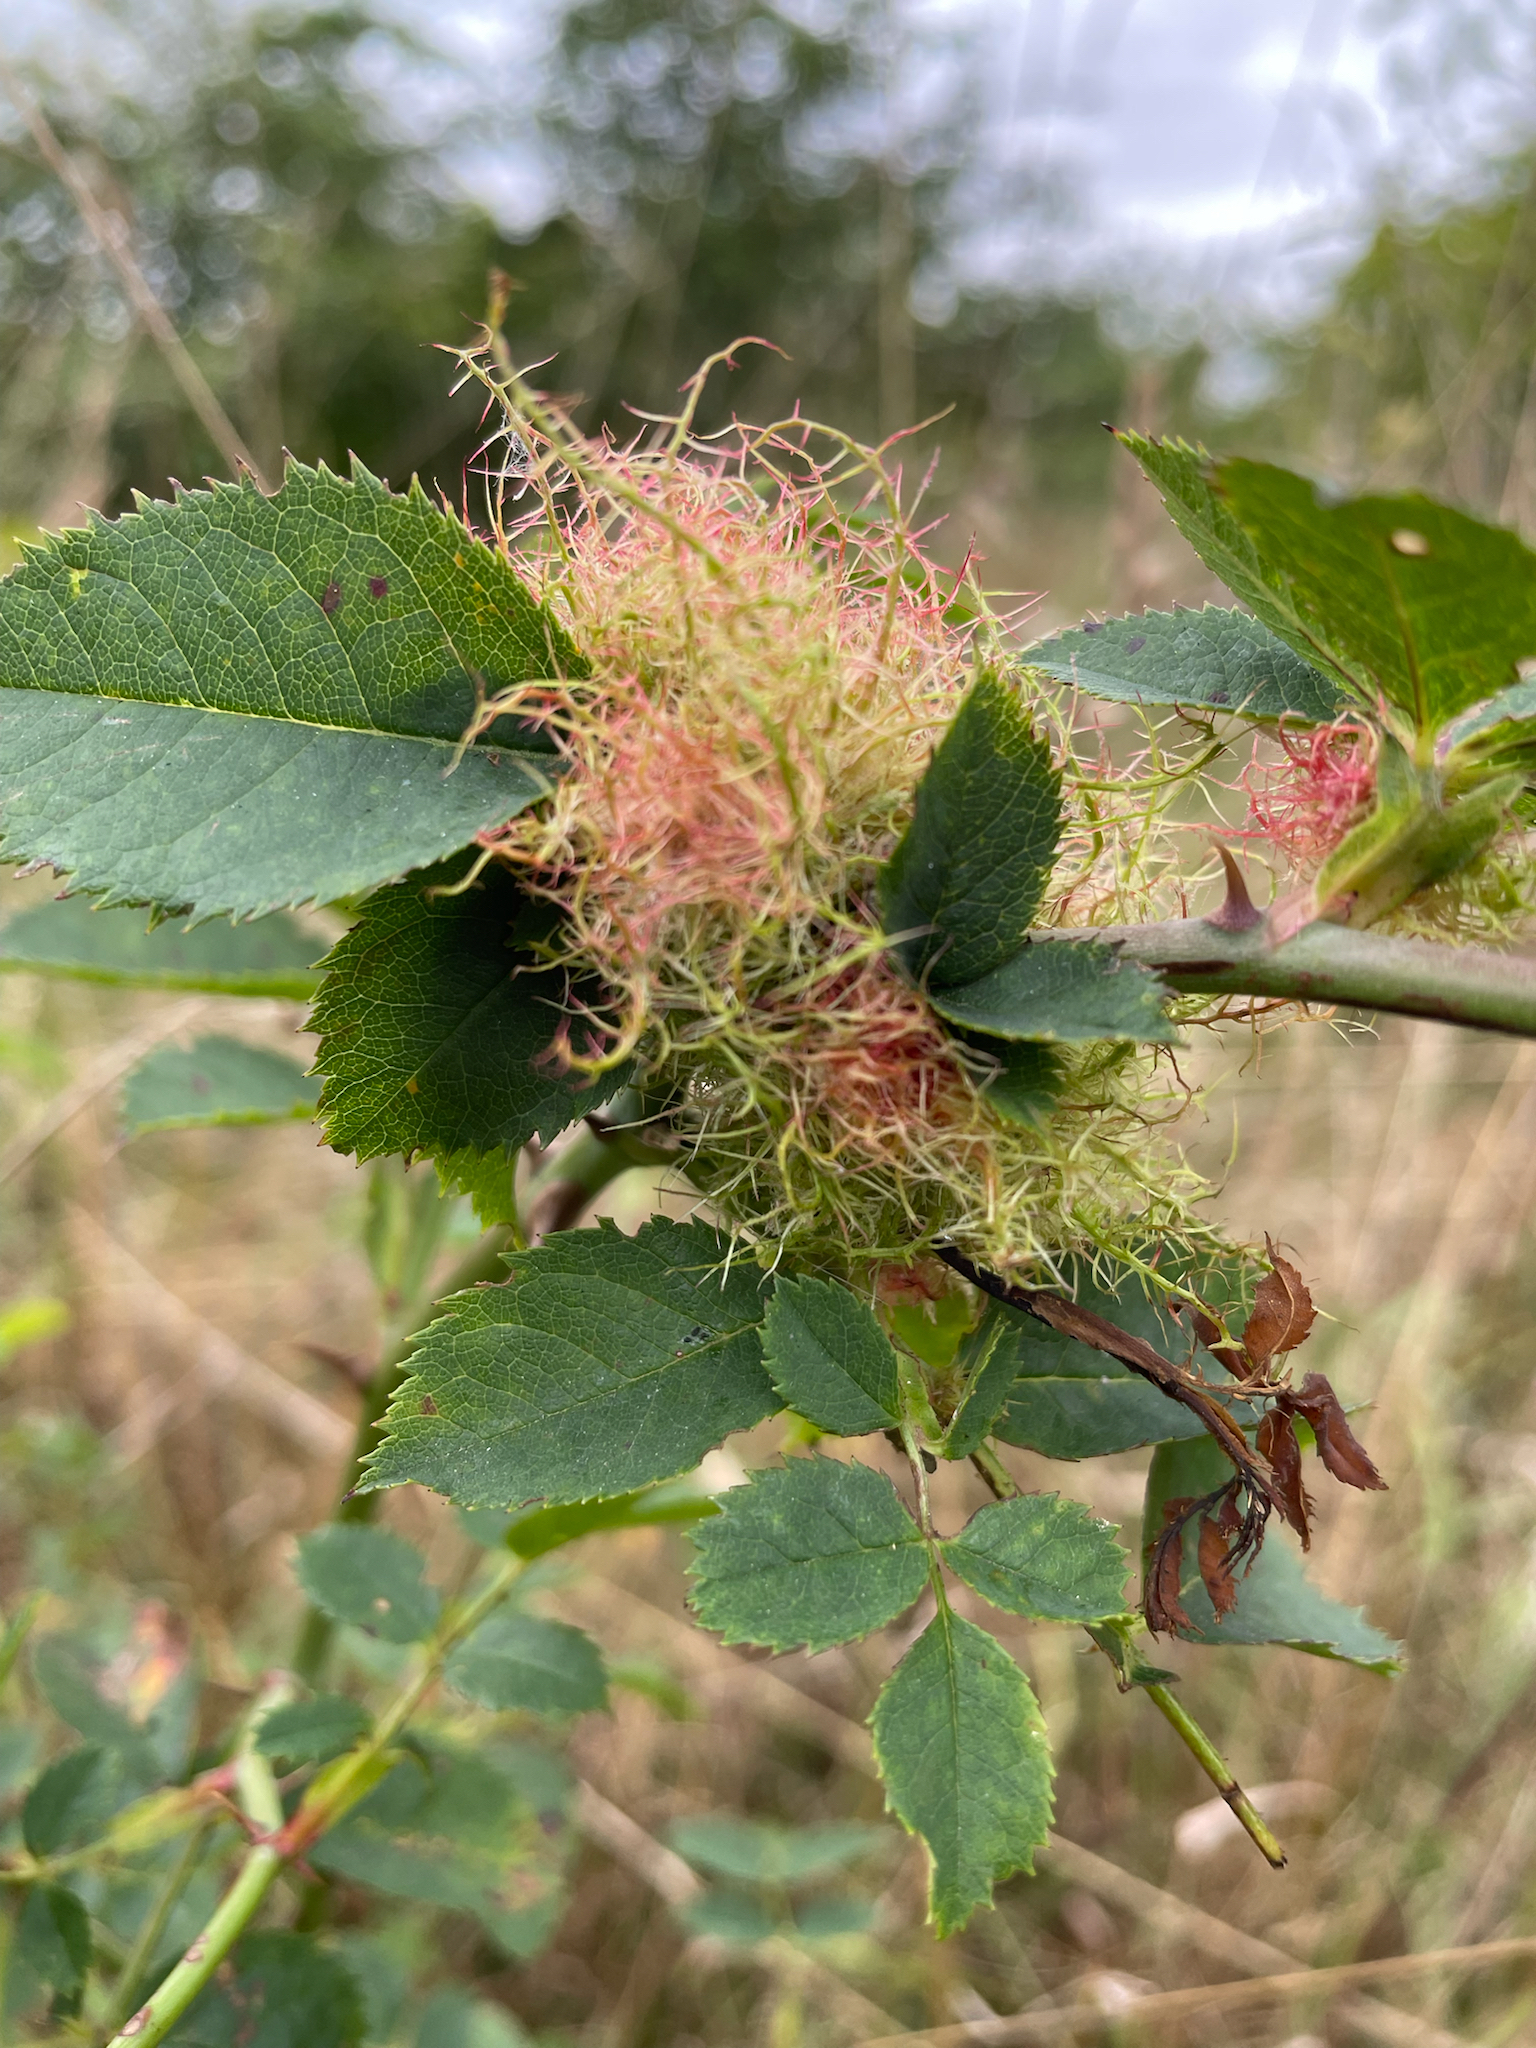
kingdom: Animalia
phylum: Arthropoda
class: Insecta
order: Hymenoptera
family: Cynipidae
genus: Diplolepis
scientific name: Diplolepis rosae
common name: Bedeguar gall
